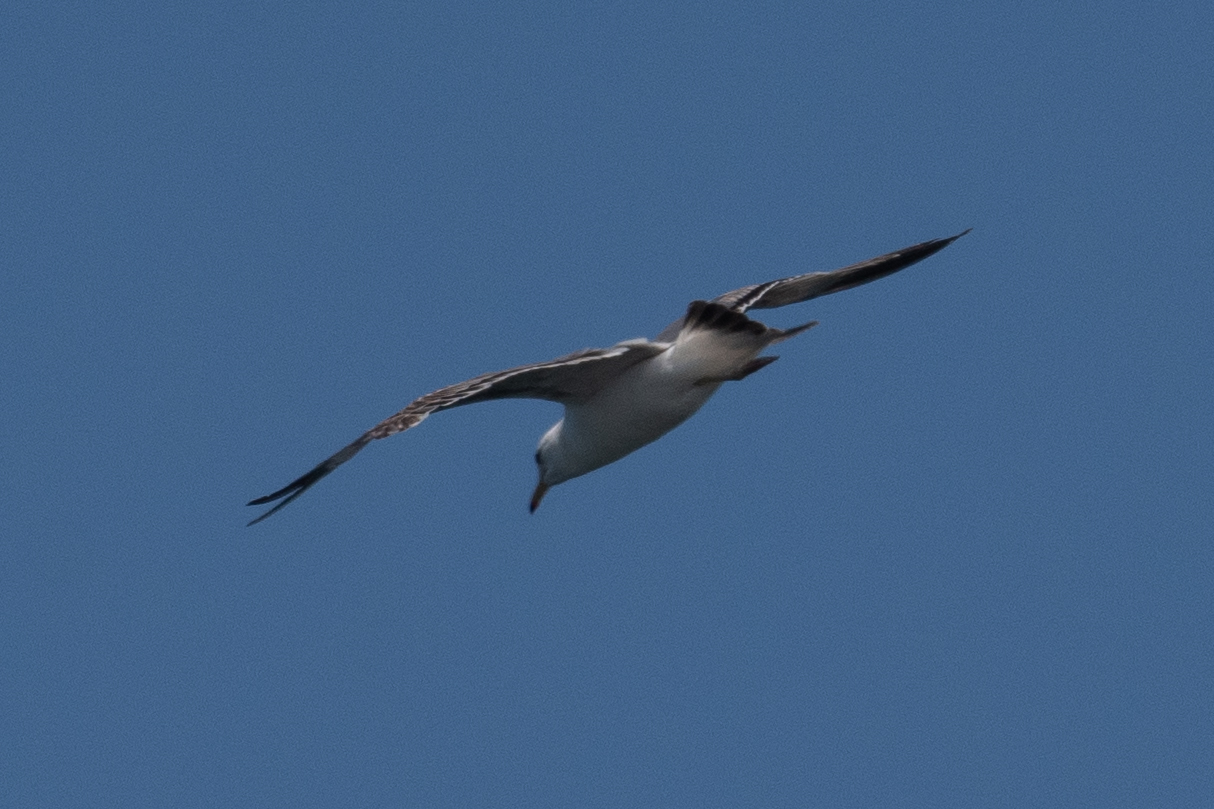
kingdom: Animalia
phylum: Chordata
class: Aves
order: Charadriiformes
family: Laridae
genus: Larus
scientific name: Larus occidentalis
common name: Western gull
